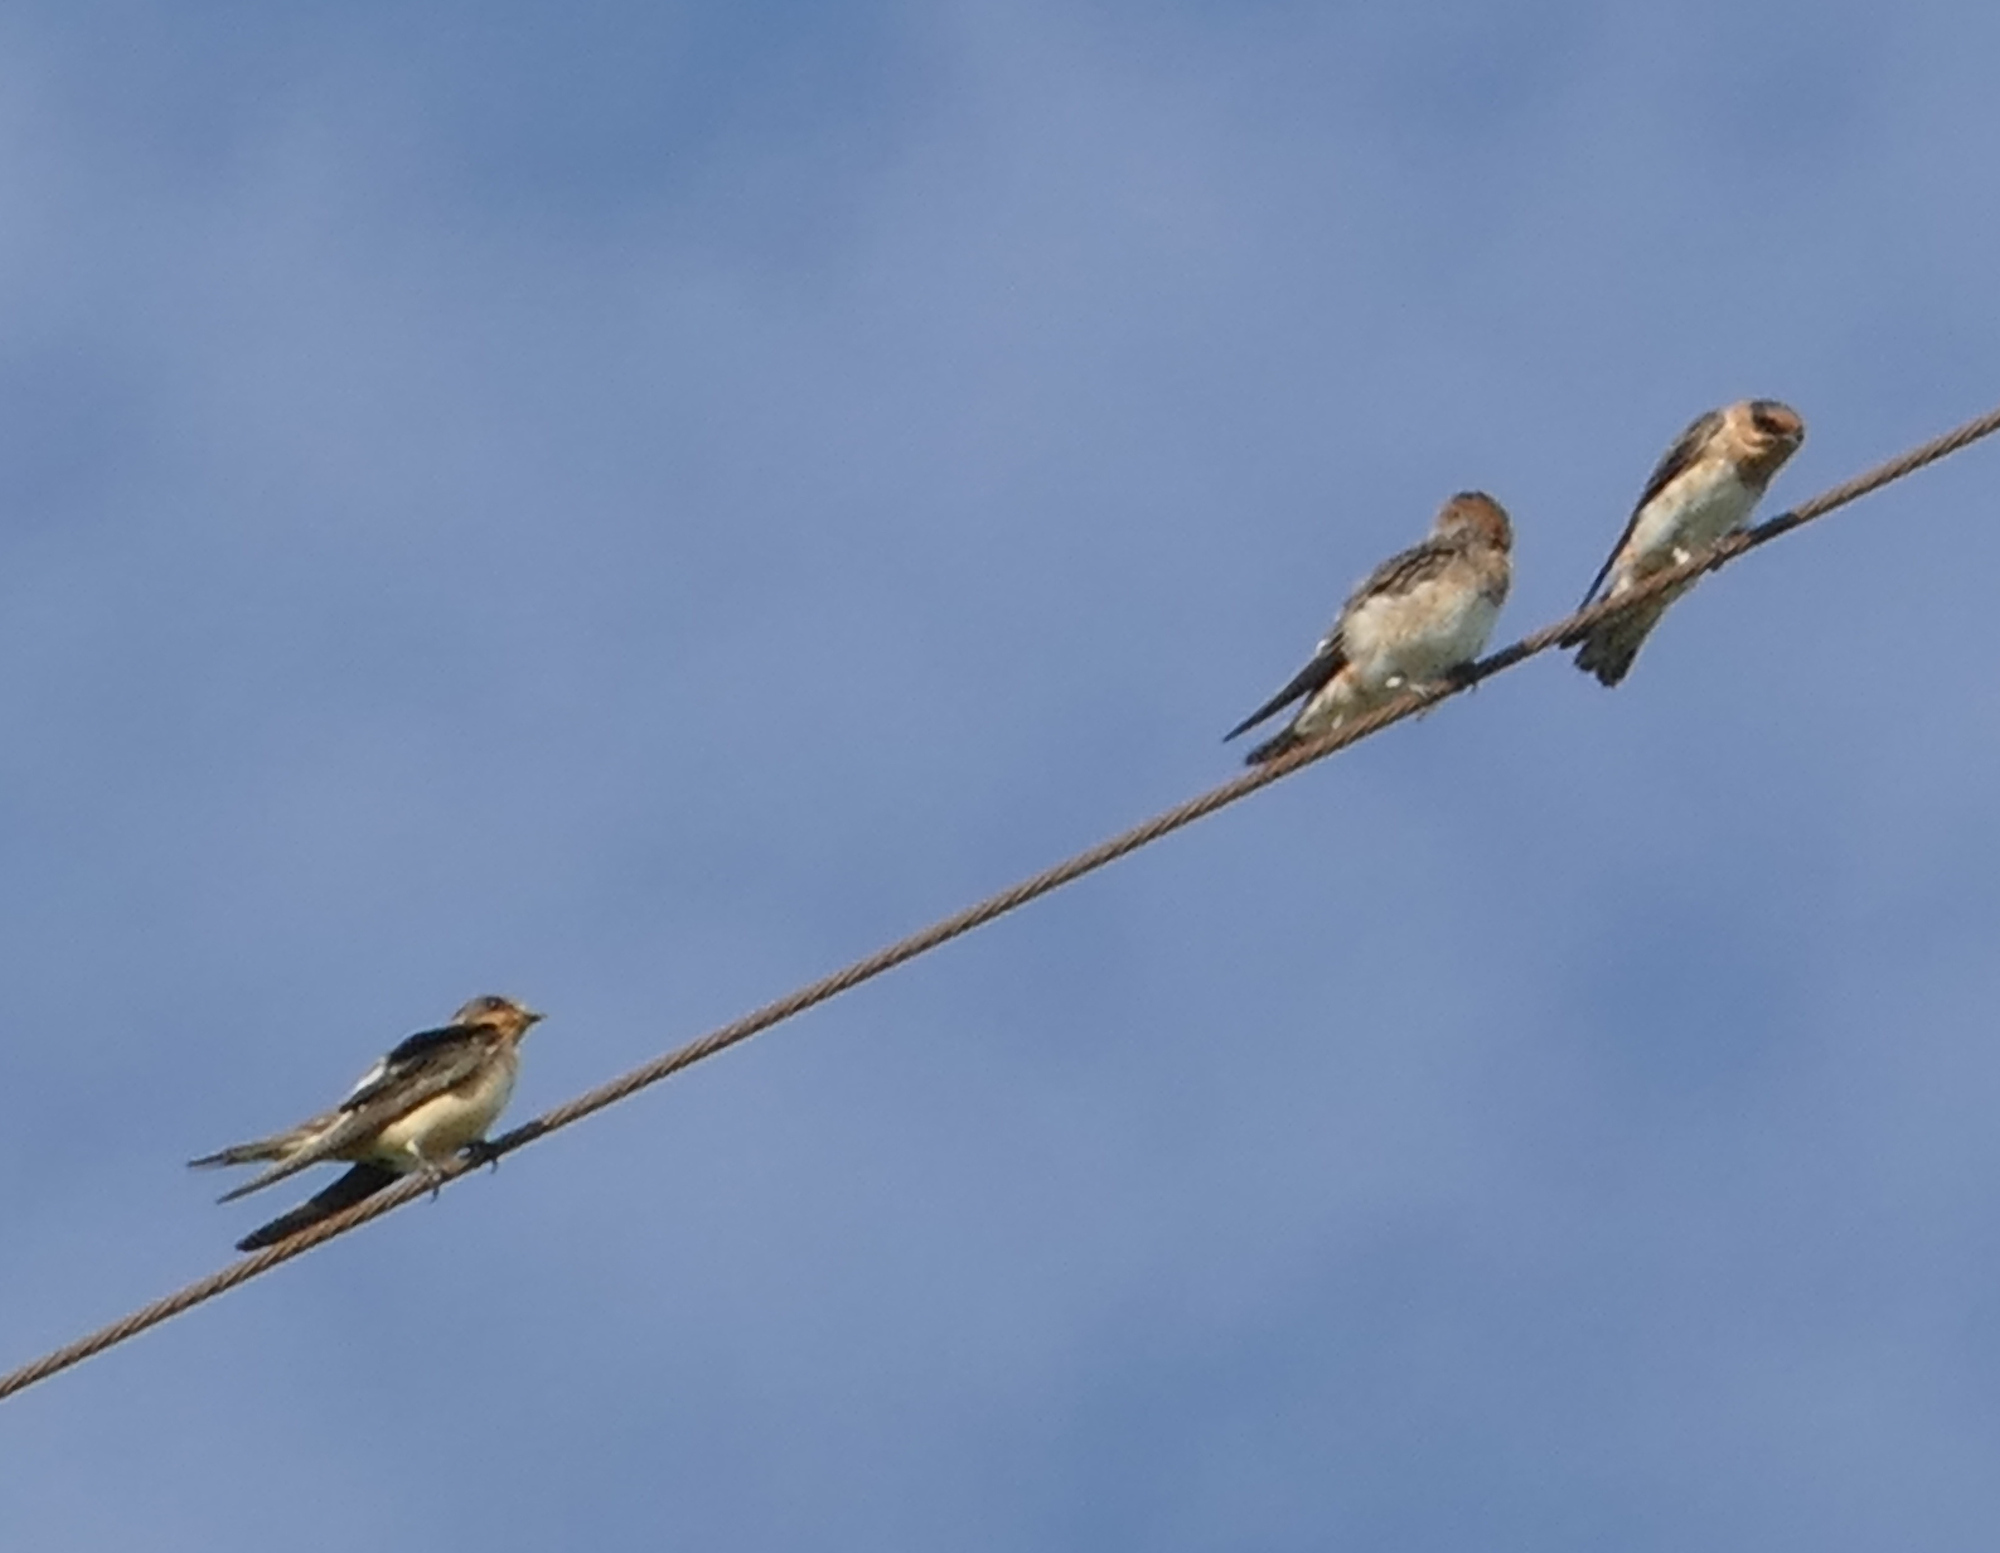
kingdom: Animalia
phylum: Chordata
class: Aves
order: Passeriformes
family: Hirundinidae
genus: Petrochelidon
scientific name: Petrochelidon fulva
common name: Cave swallow
